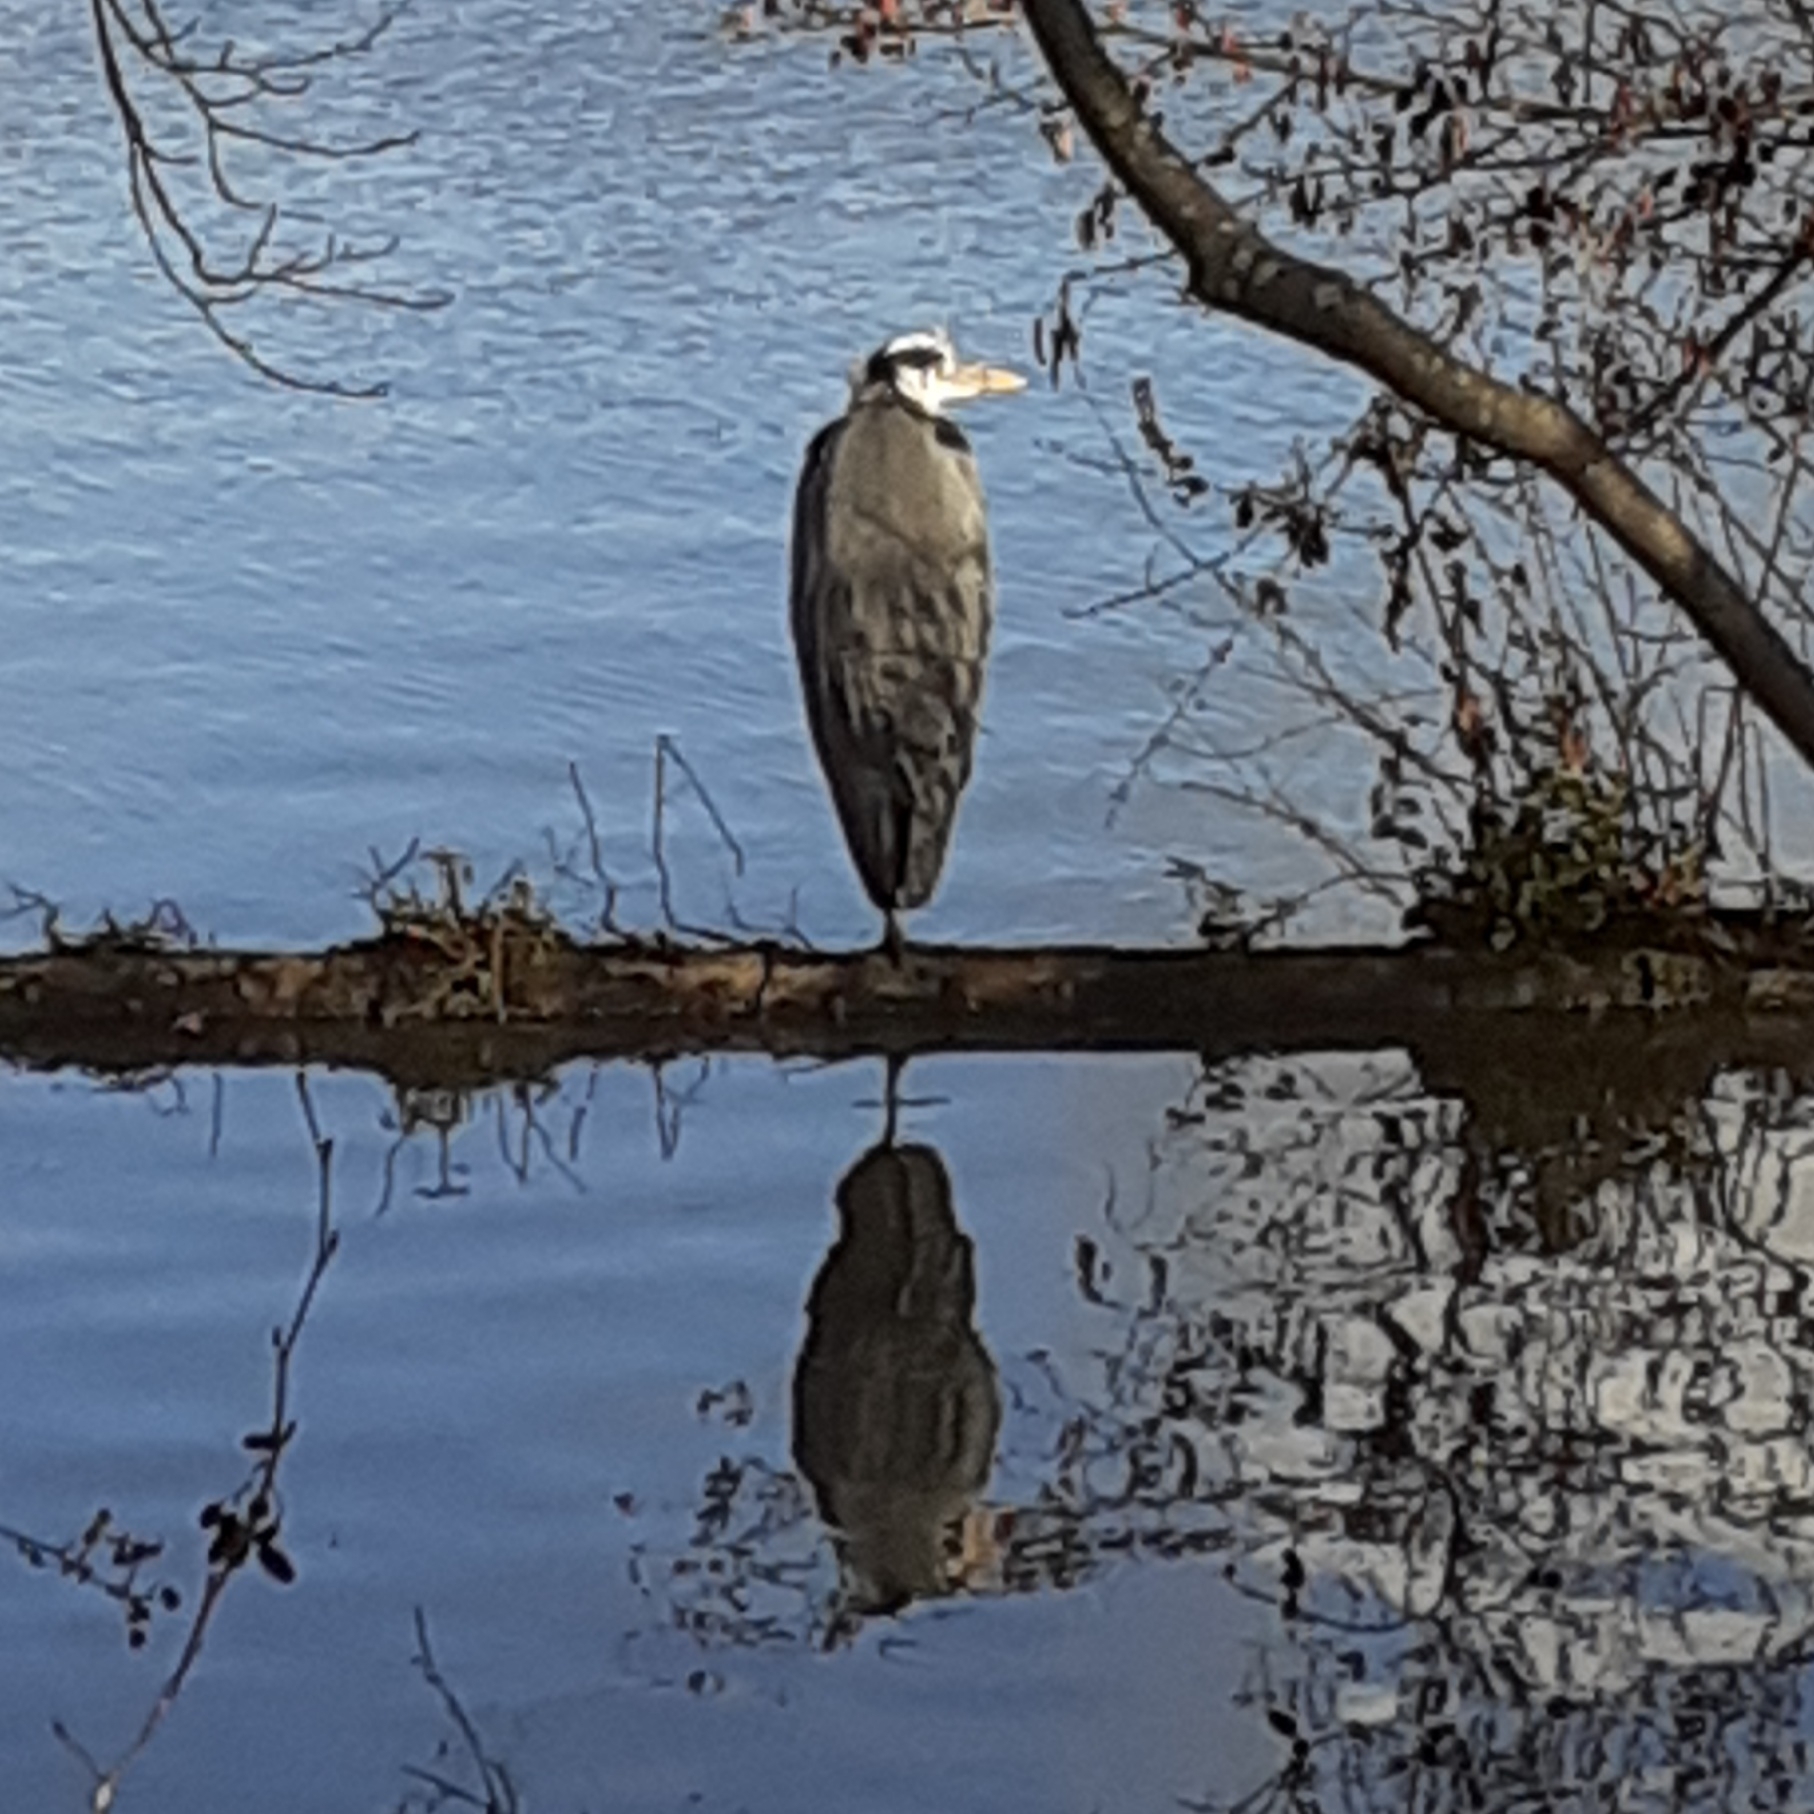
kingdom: Animalia
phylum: Chordata
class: Aves
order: Pelecaniformes
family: Ardeidae
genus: Ardea
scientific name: Ardea cinerea
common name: Grey heron
